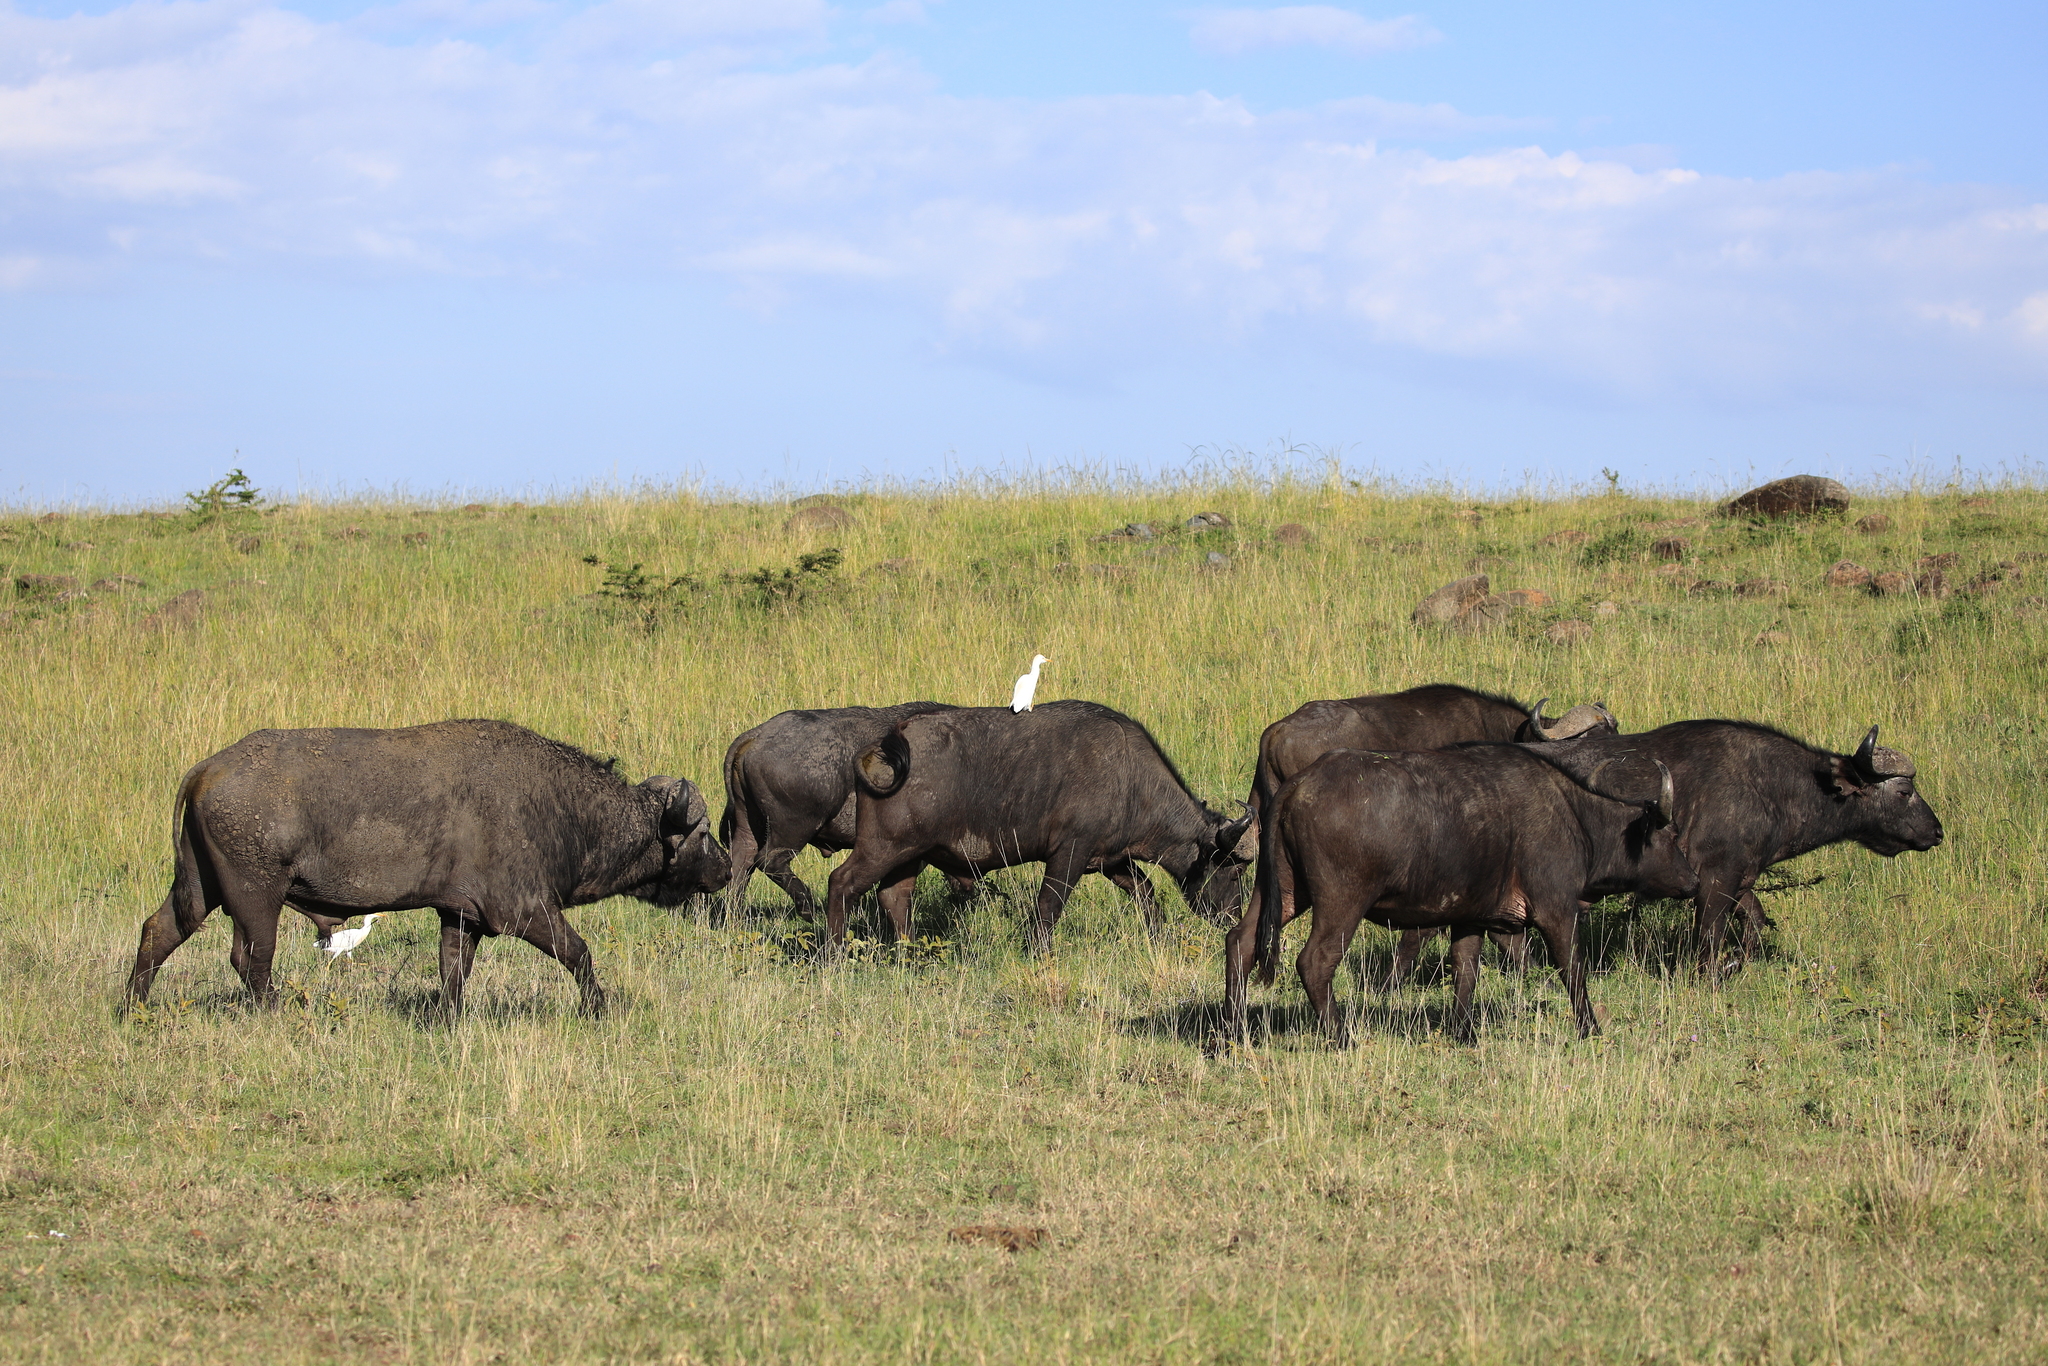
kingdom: Animalia
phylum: Chordata
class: Mammalia
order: Artiodactyla
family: Bovidae
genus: Syncerus
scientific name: Syncerus caffer
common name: African buffalo
